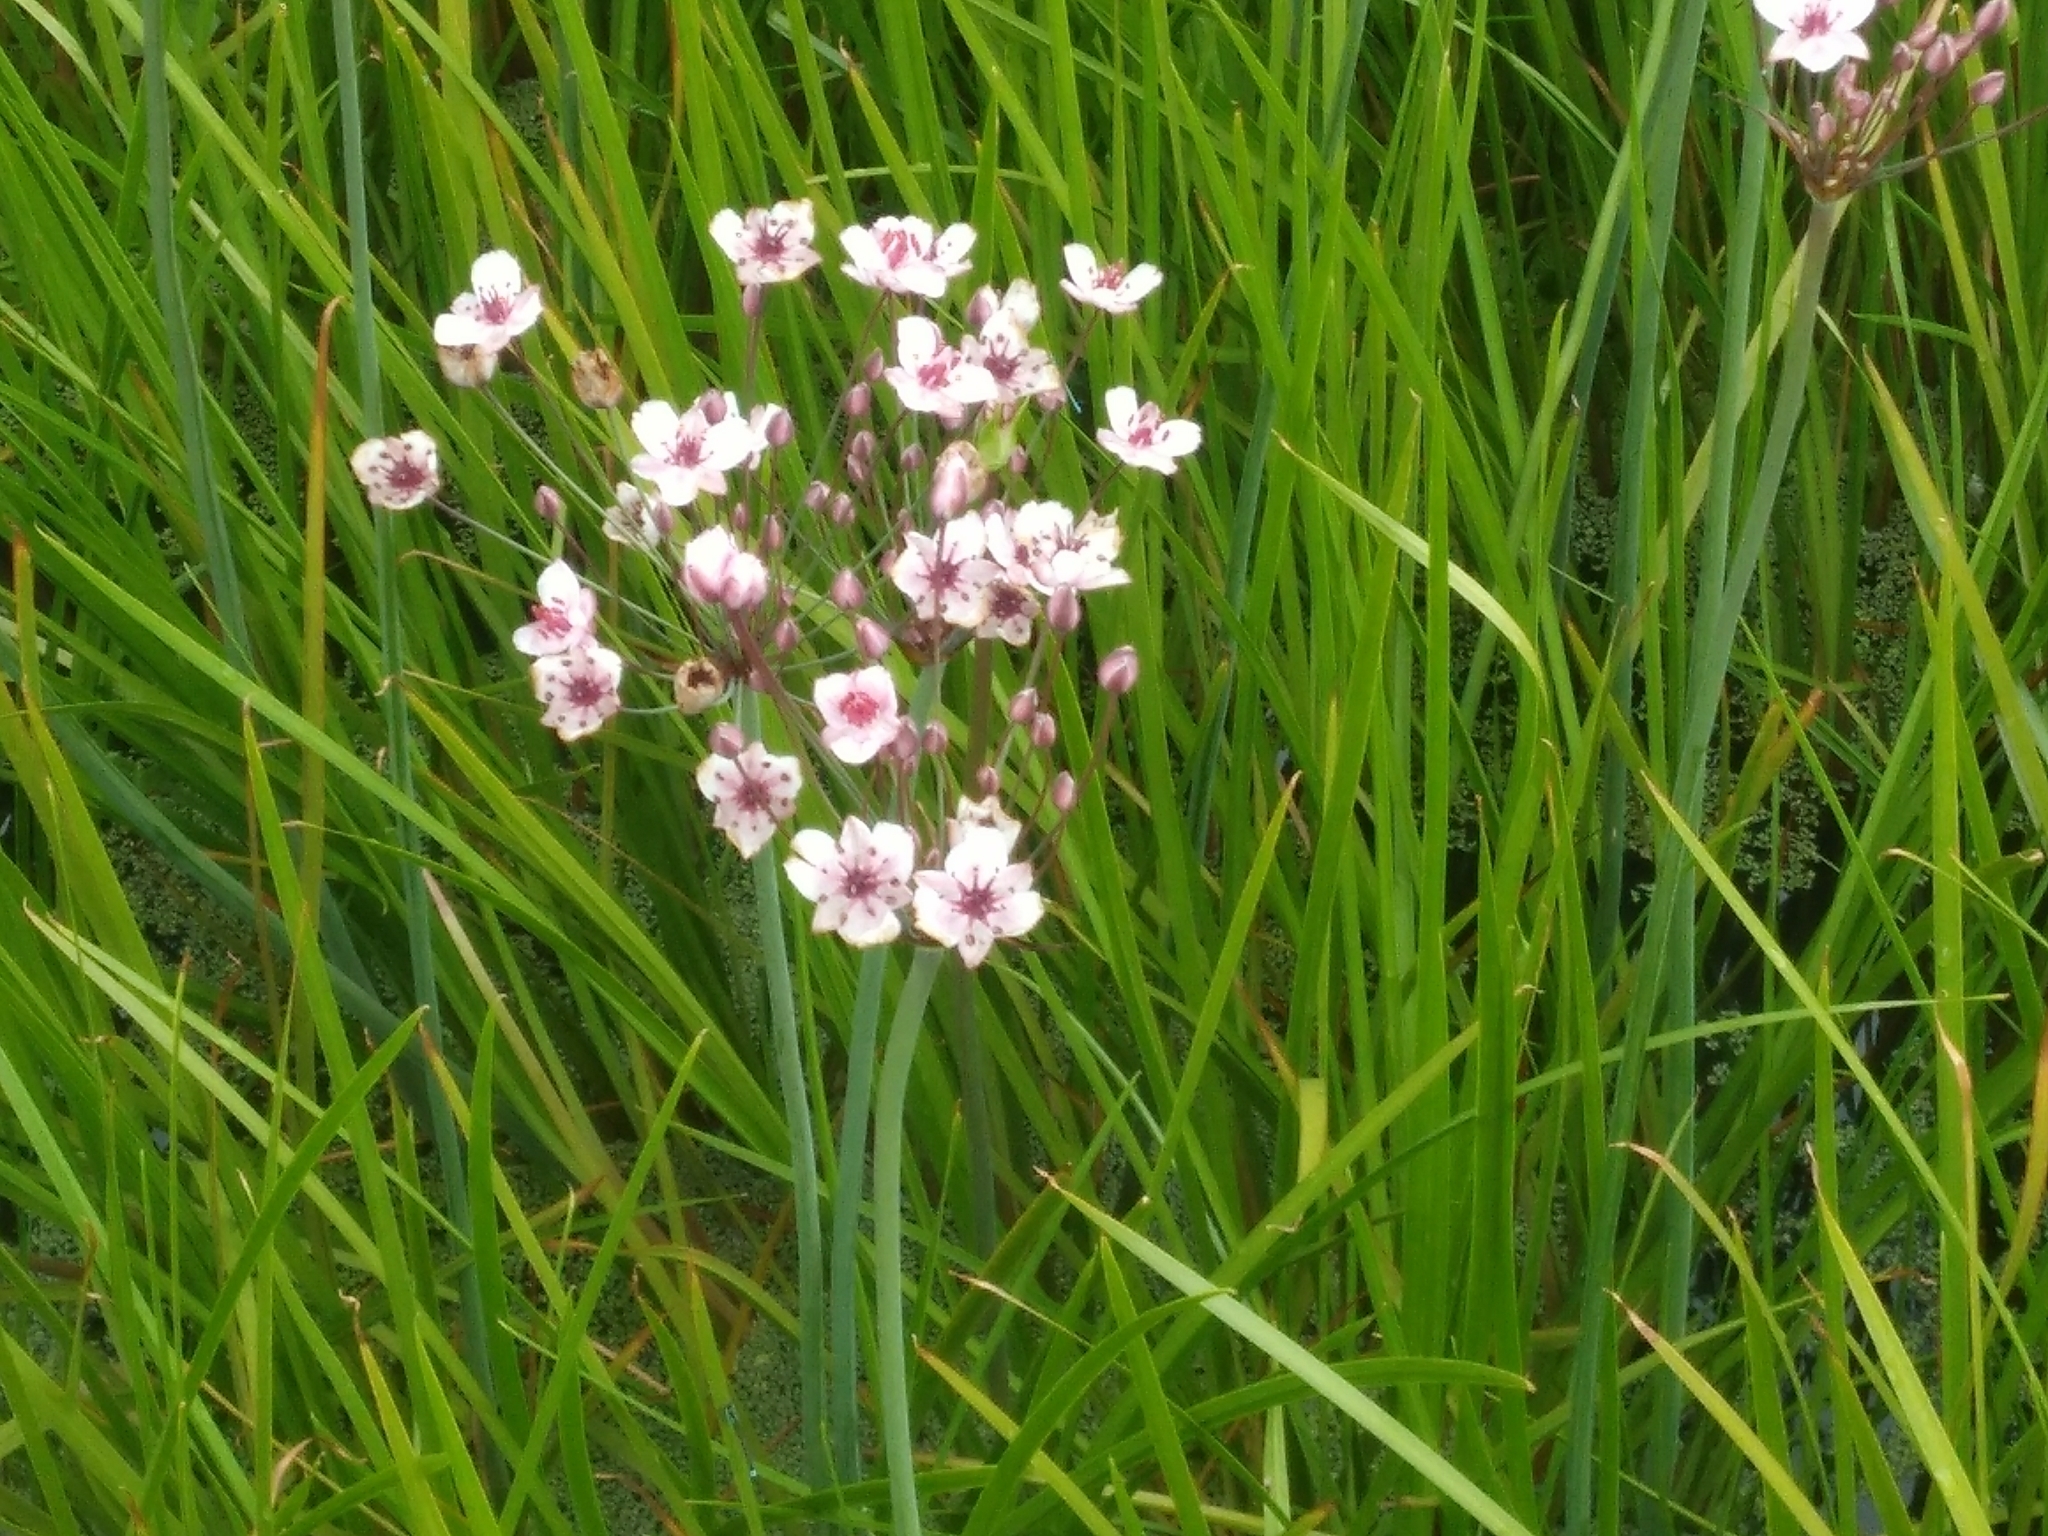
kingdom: Plantae
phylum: Tracheophyta
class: Liliopsida
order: Alismatales
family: Butomaceae
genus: Butomus
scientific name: Butomus umbellatus
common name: Flowering-rush
